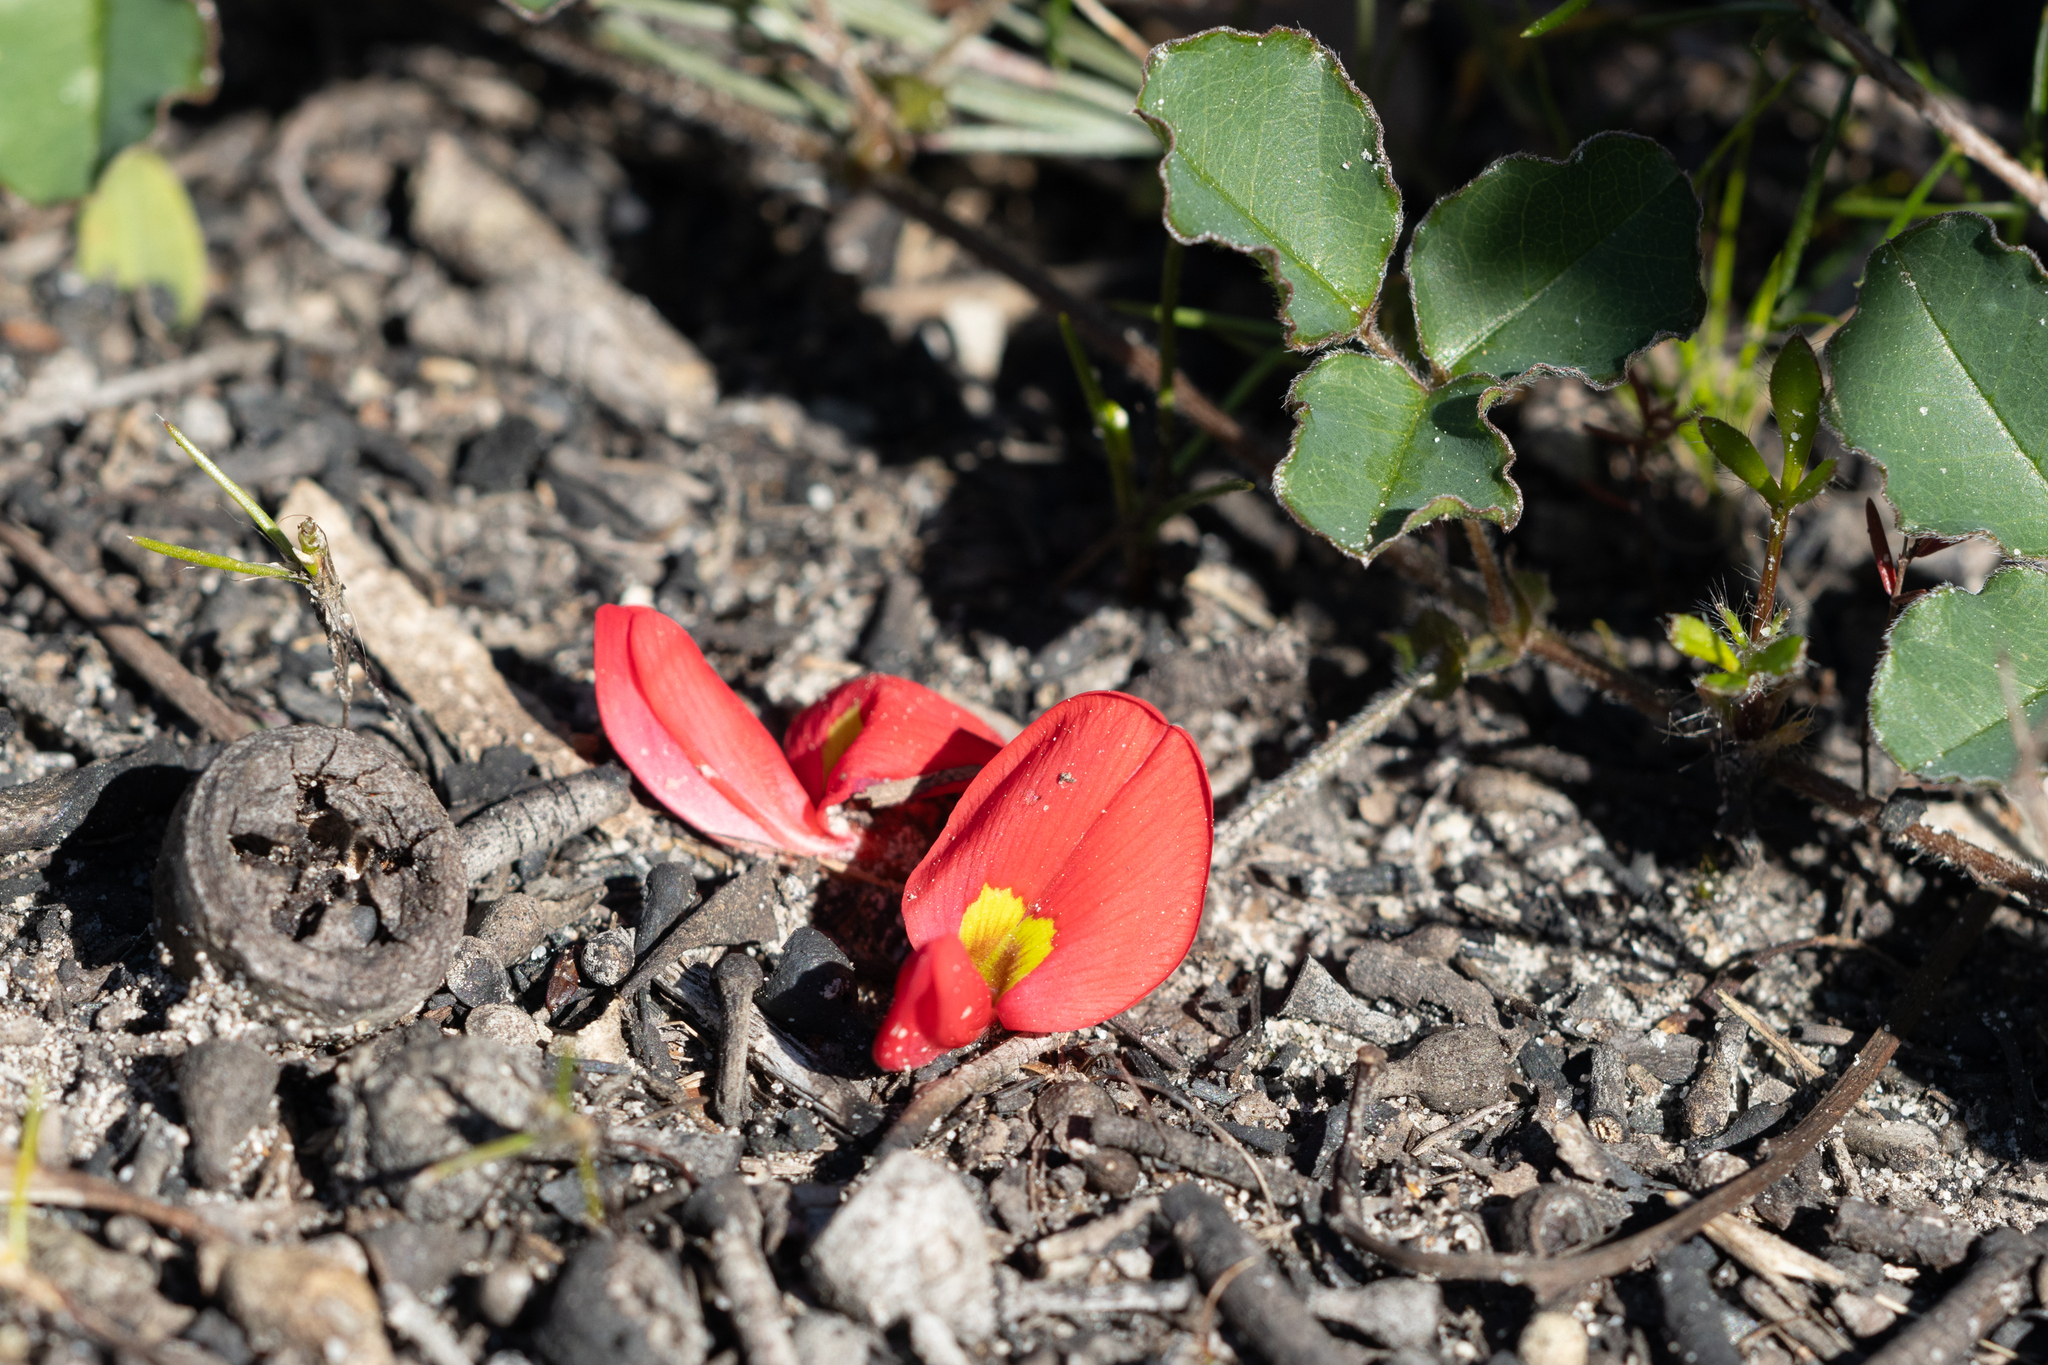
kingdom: Plantae
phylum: Tracheophyta
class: Magnoliopsida
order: Fabales
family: Fabaceae
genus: Kennedia
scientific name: Kennedia prostrata
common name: Running-postman
